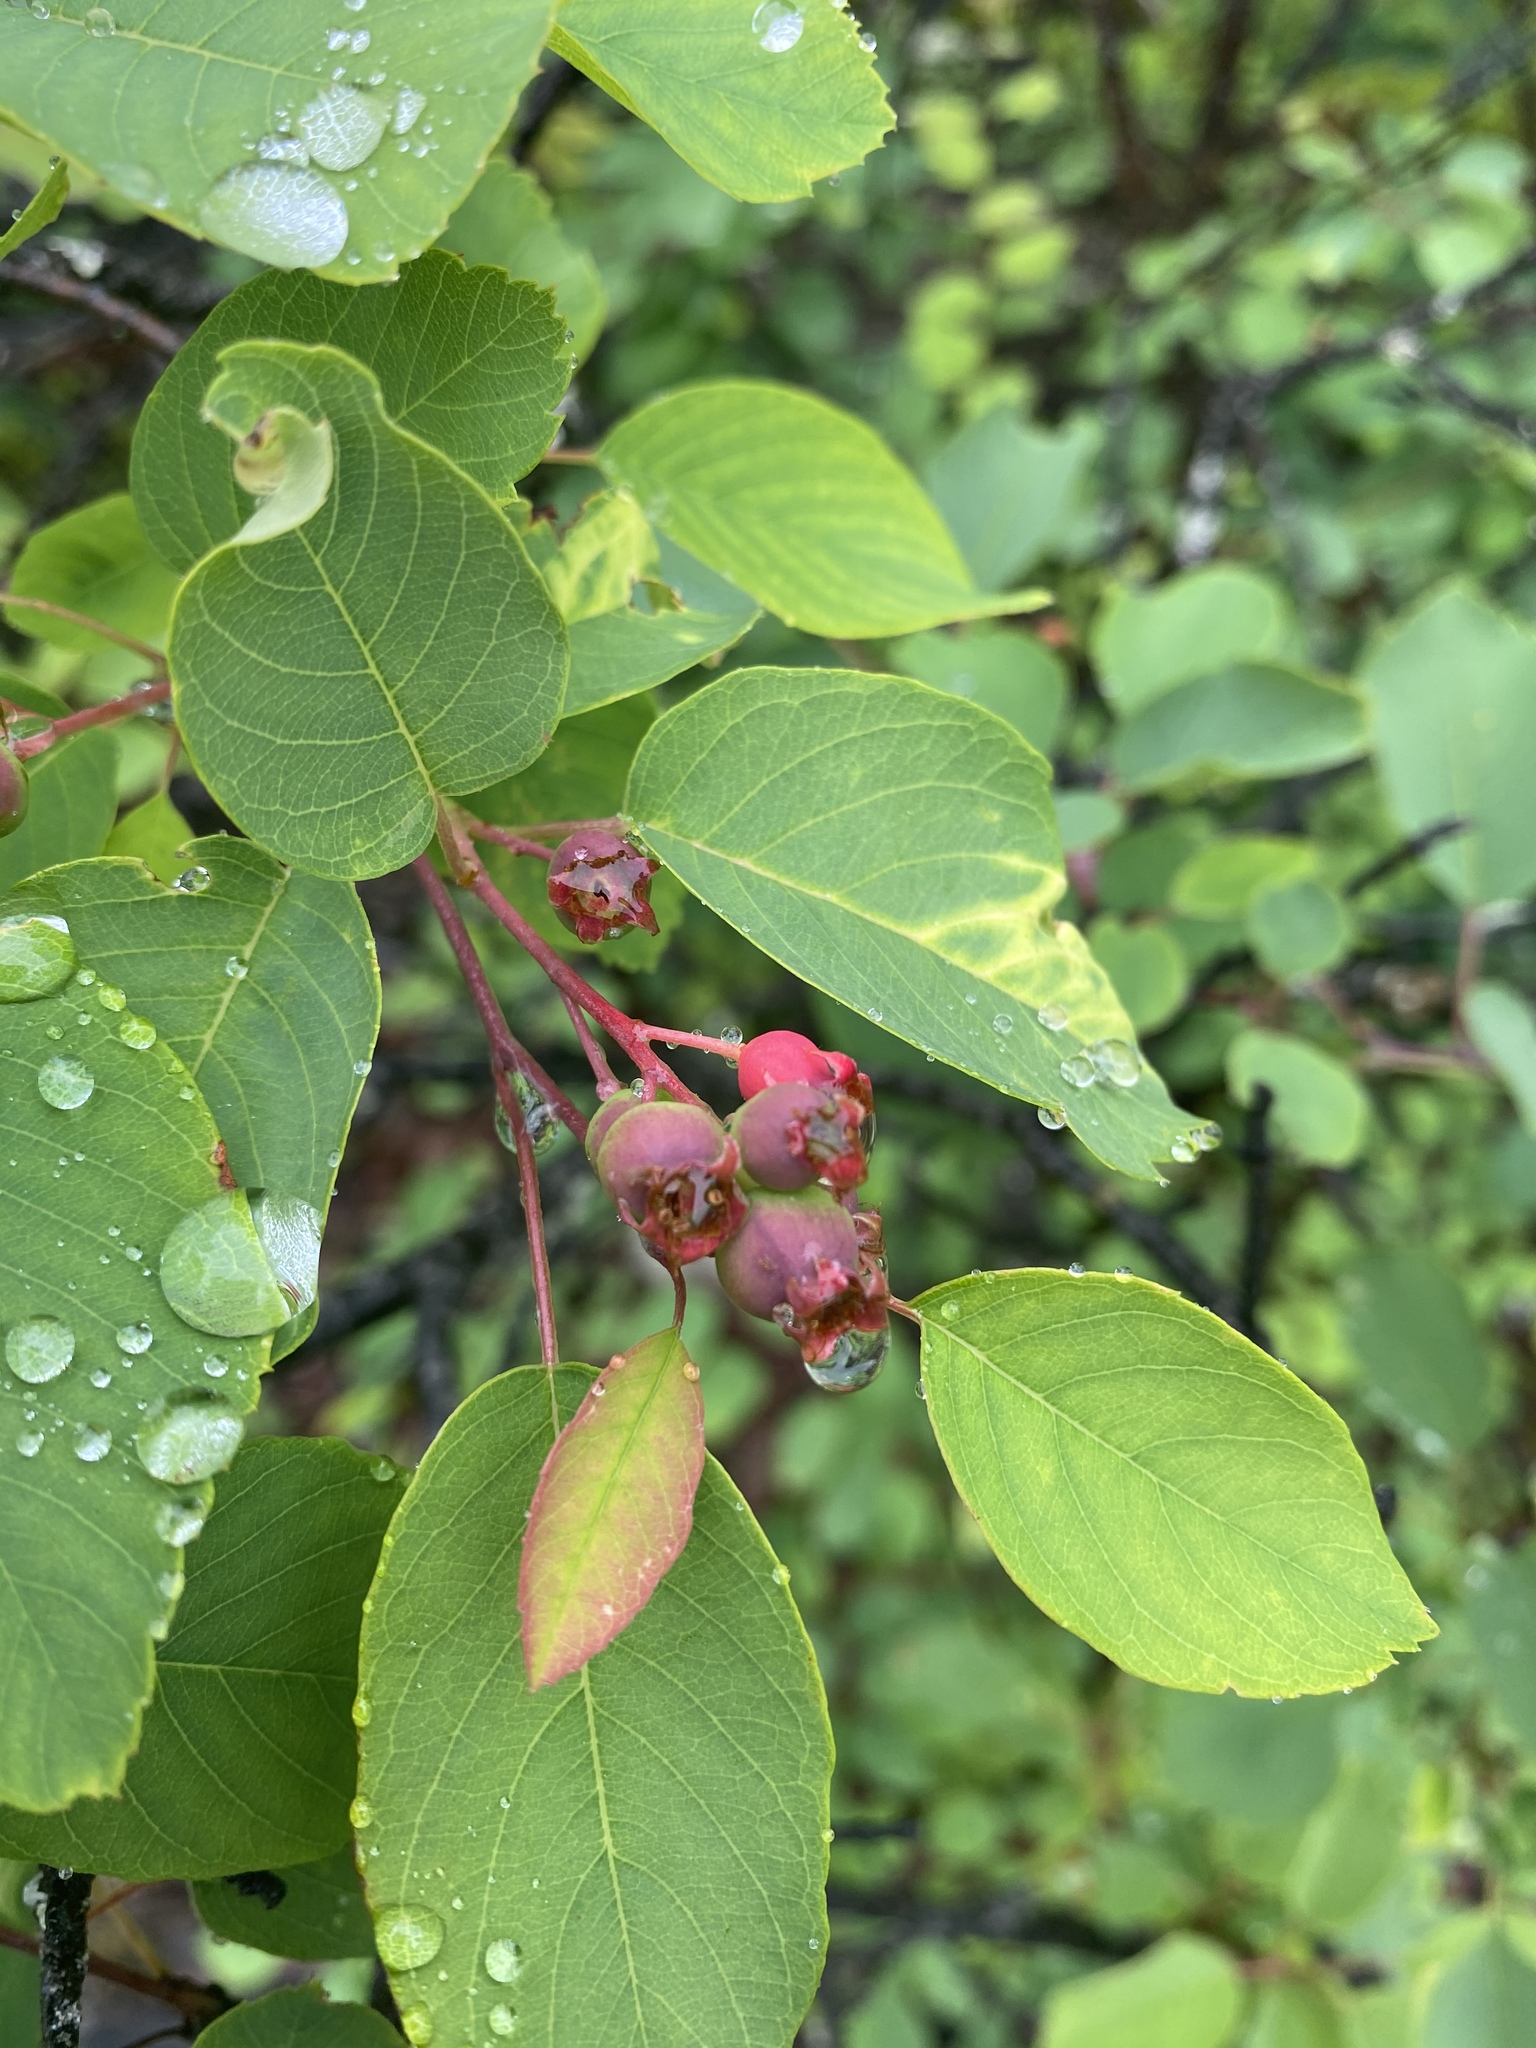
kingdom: Plantae
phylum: Tracheophyta
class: Magnoliopsida
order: Rosales
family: Rosaceae
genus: Amelanchier
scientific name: Amelanchier alnifolia
